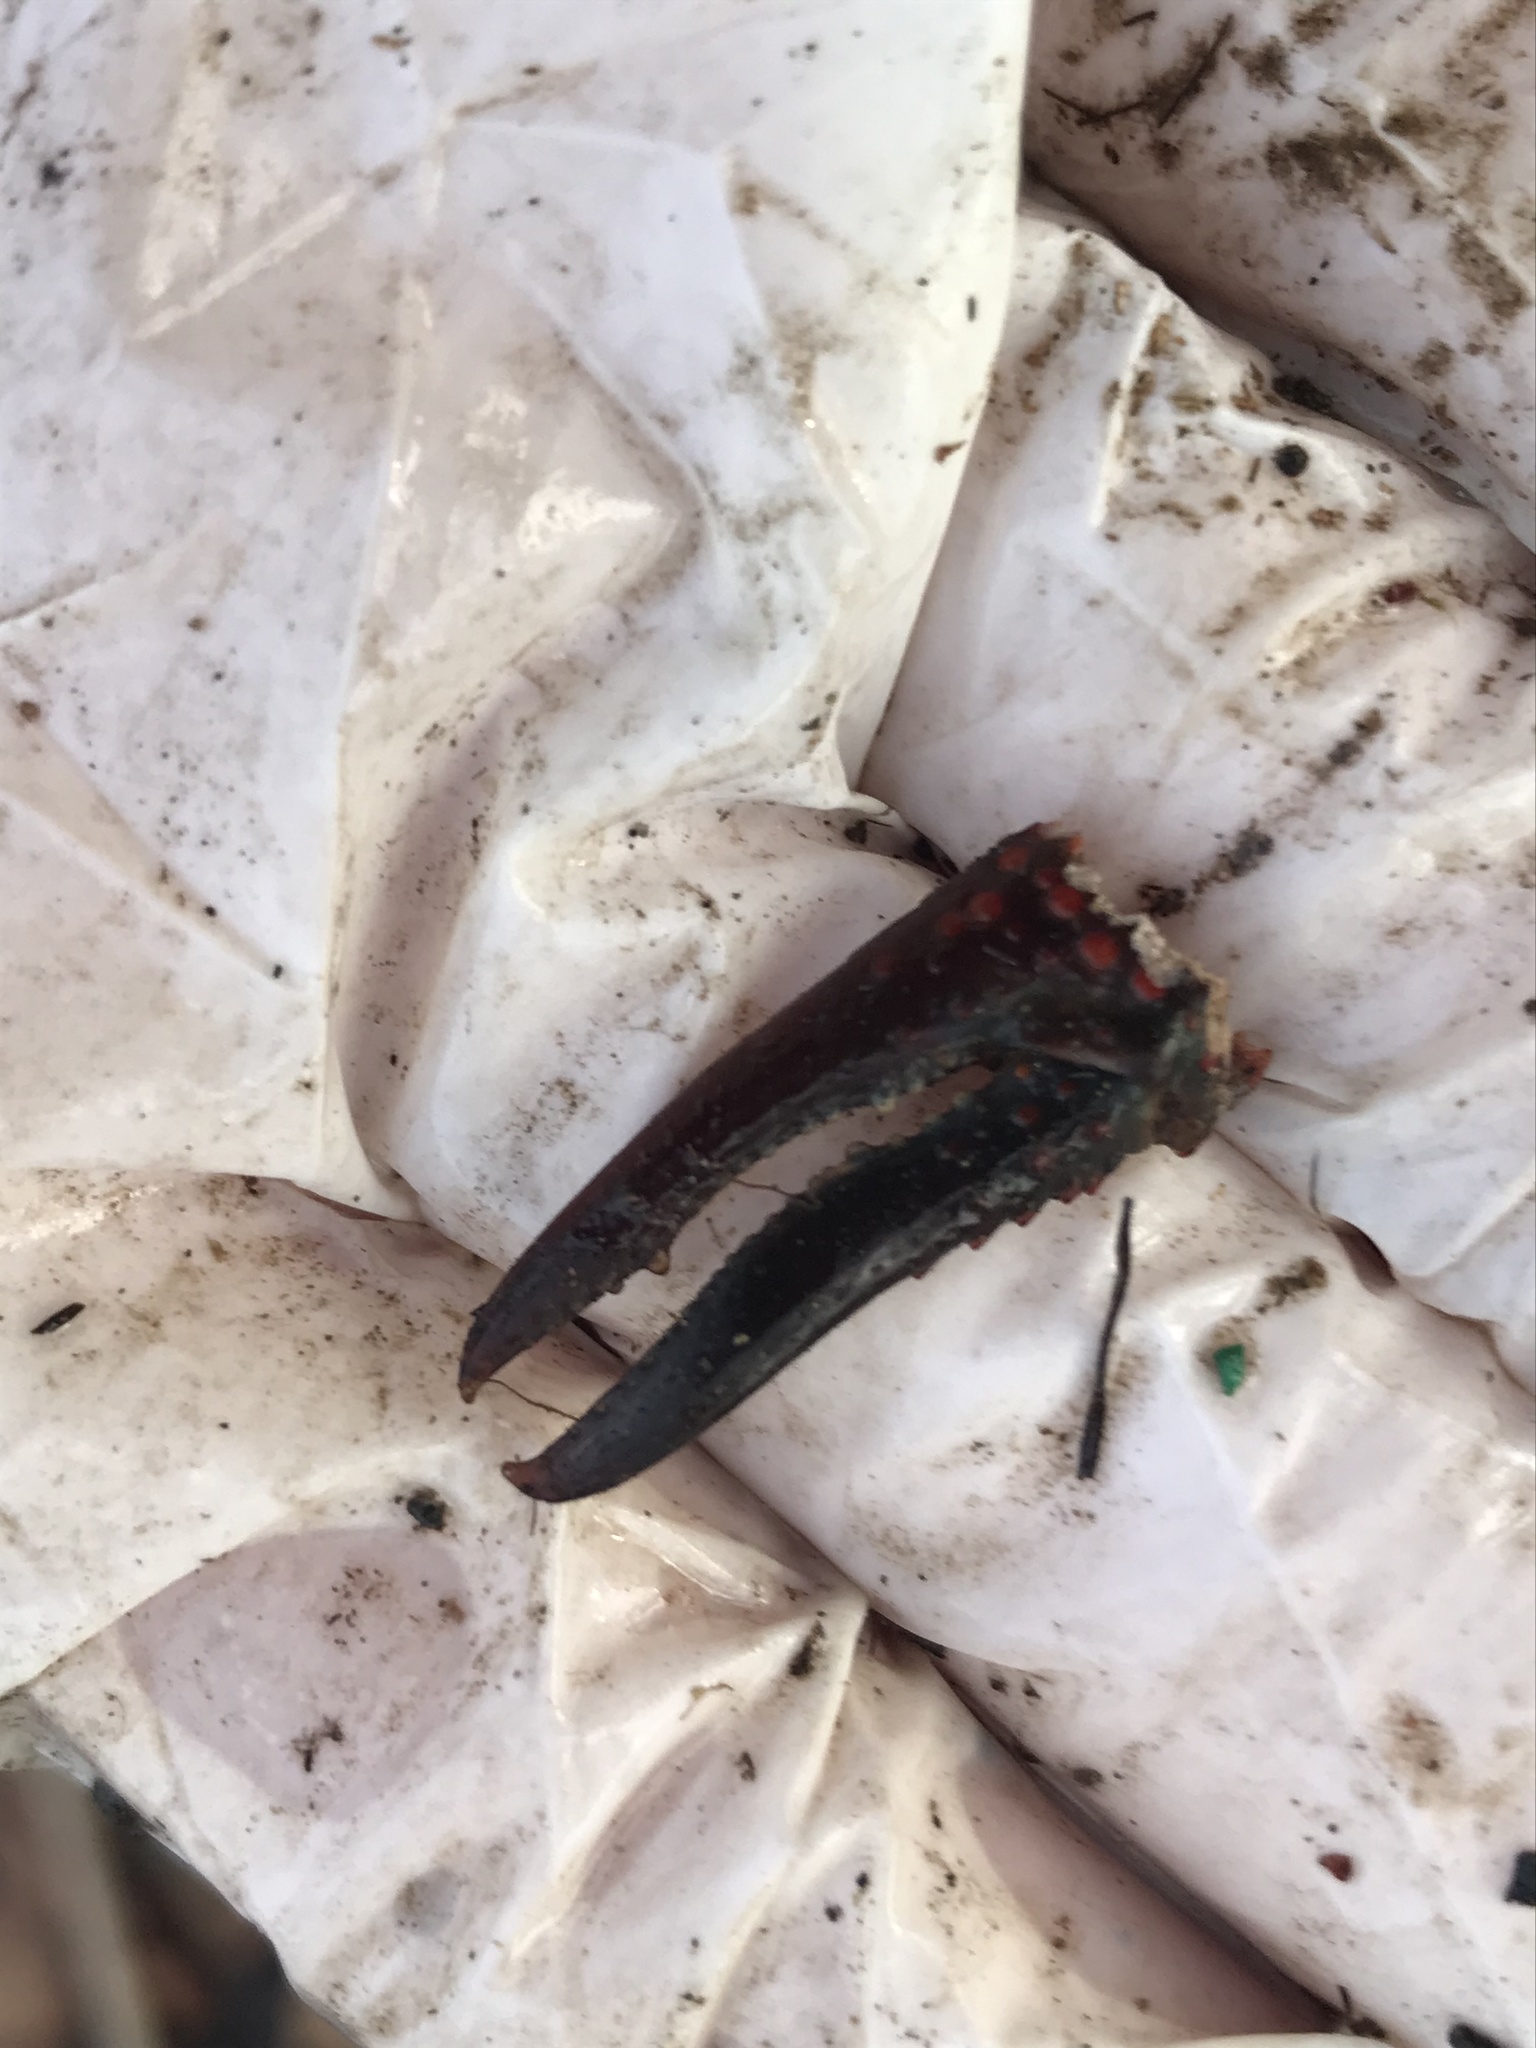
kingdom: Animalia
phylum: Arthropoda
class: Malacostraca
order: Decapoda
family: Cambaridae
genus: Procambarus
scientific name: Procambarus clarkii
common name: Red swamp crayfish
